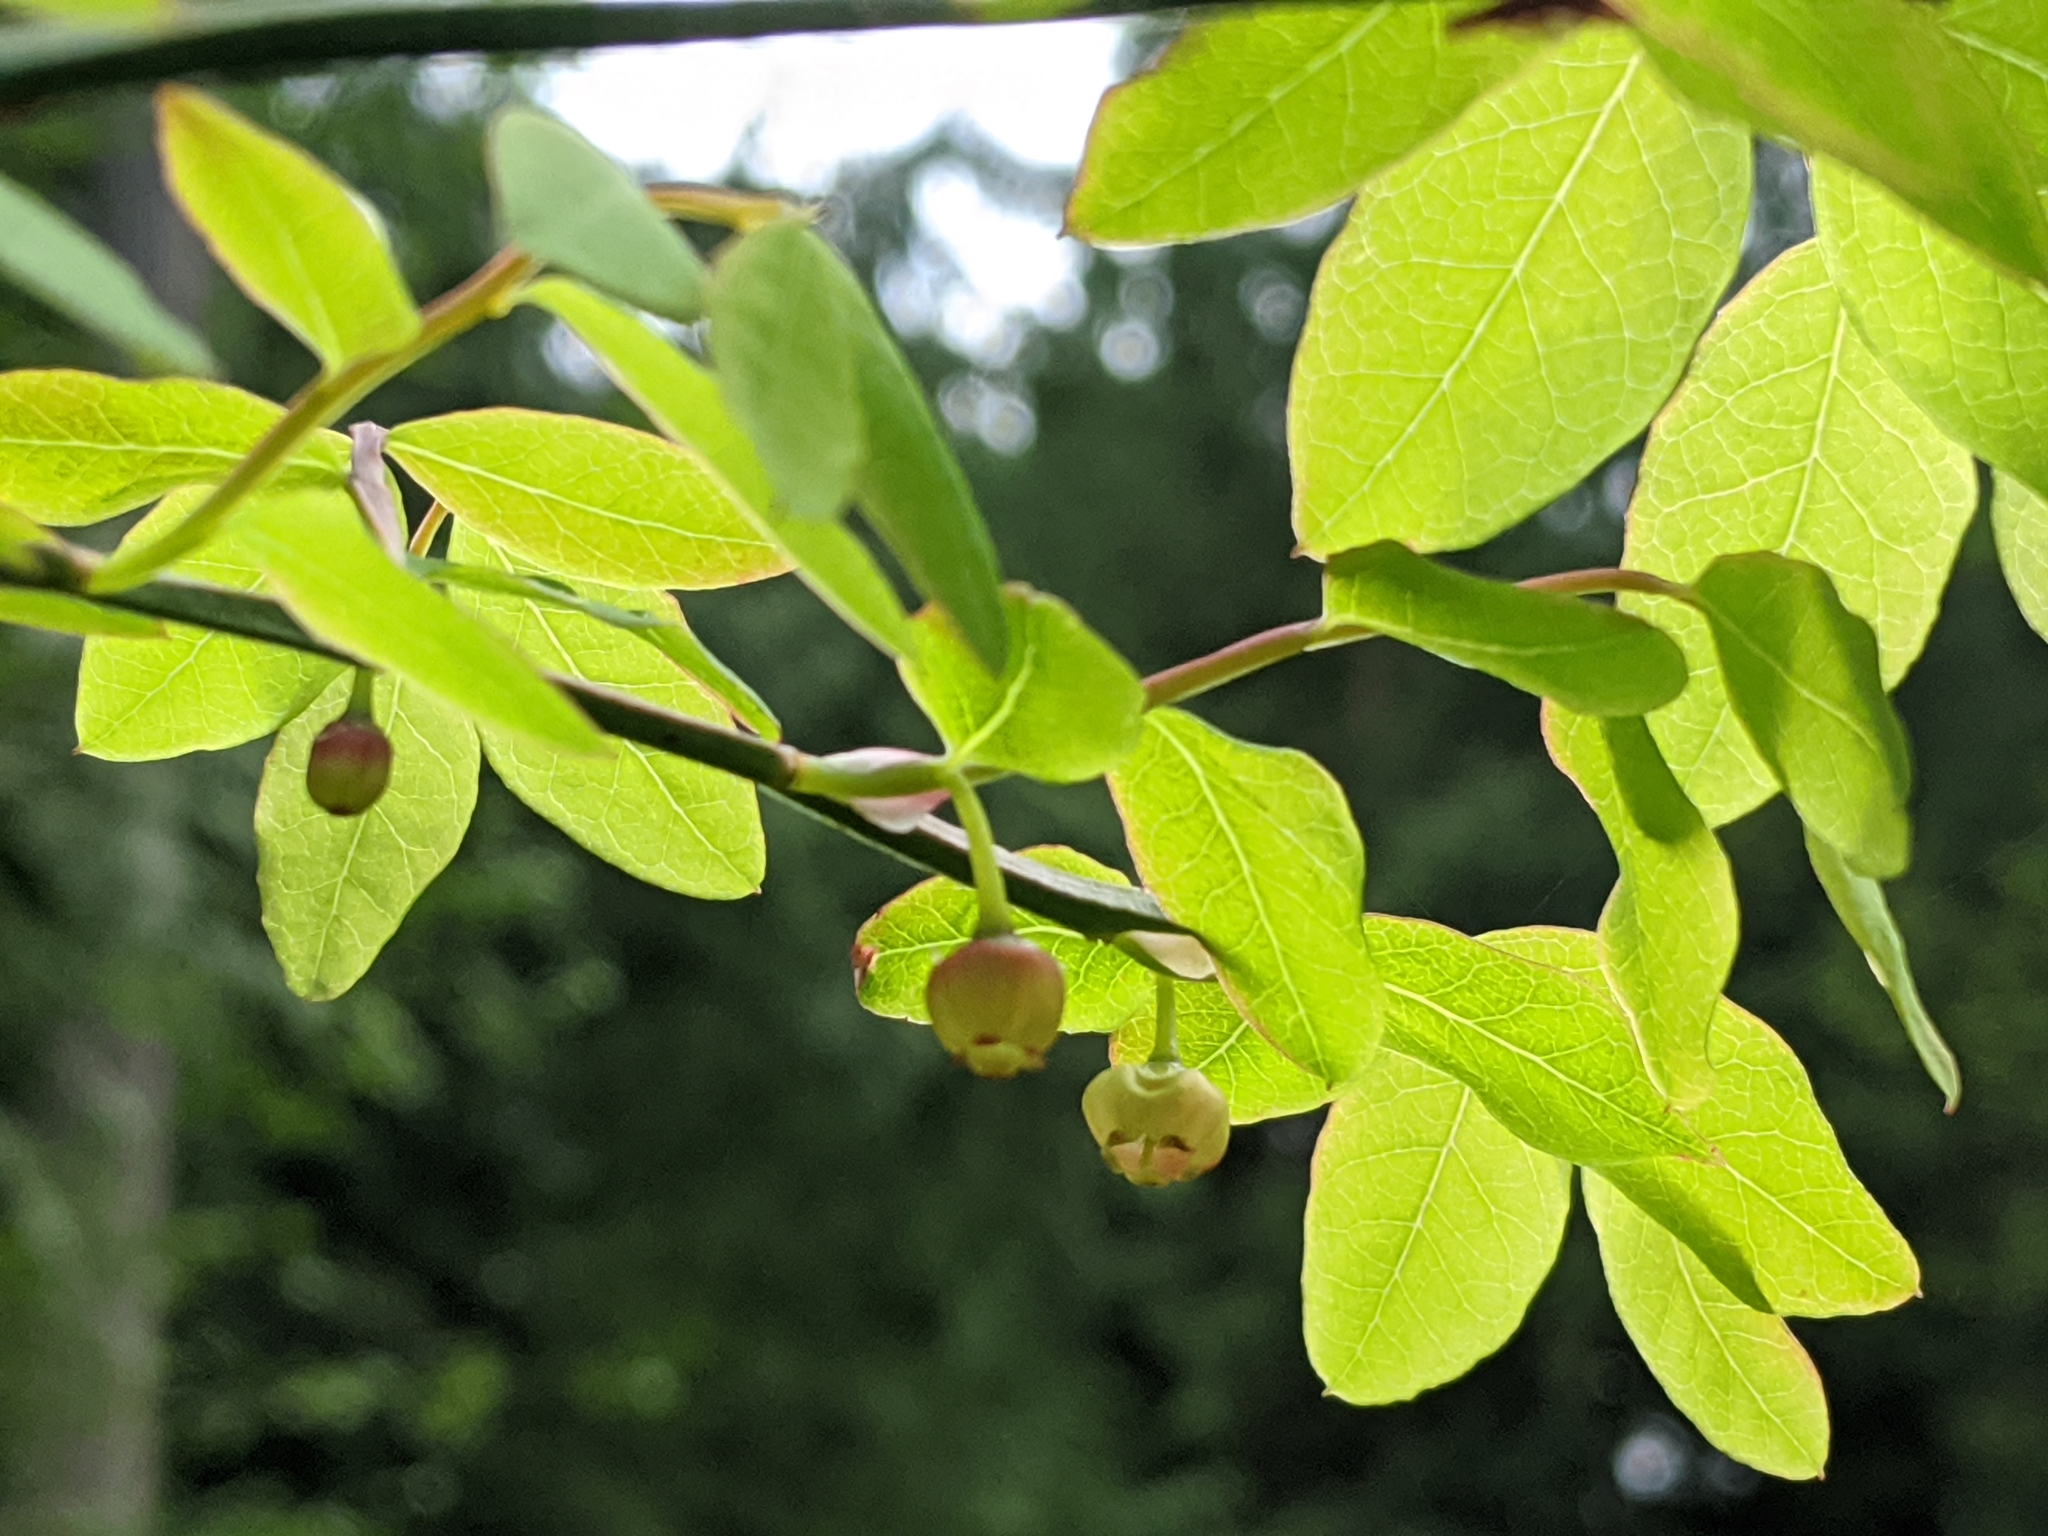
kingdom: Plantae
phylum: Tracheophyta
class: Magnoliopsida
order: Ericales
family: Ericaceae
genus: Vaccinium
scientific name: Vaccinium parvifolium
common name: Red-huckleberry
